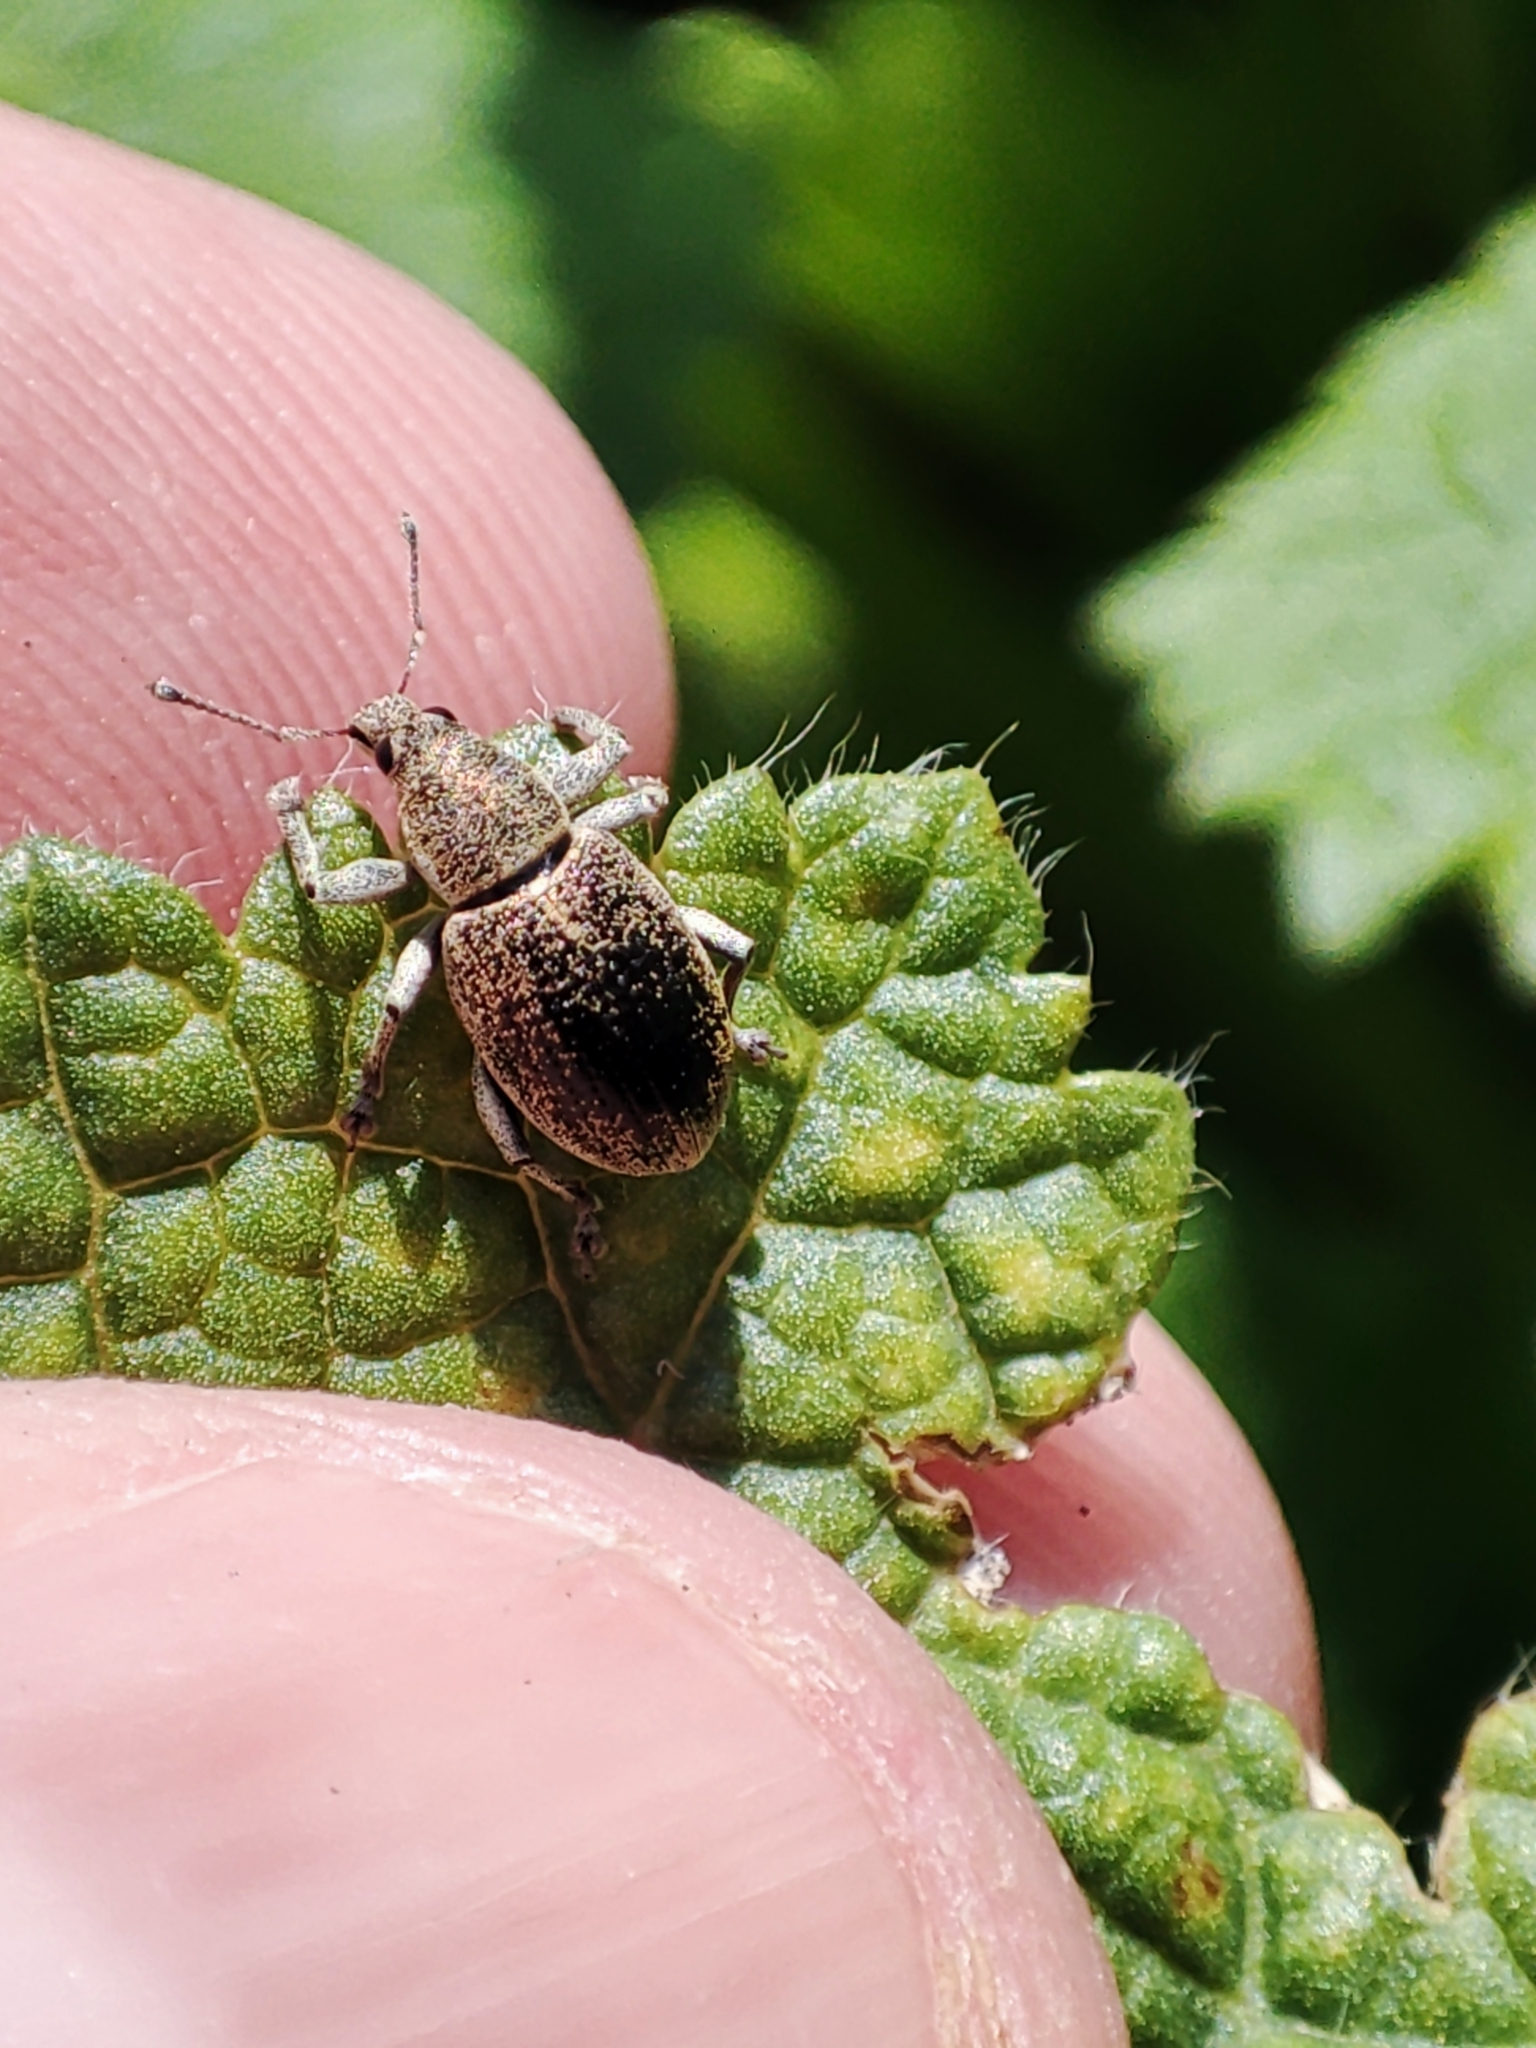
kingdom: Animalia
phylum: Arthropoda
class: Insecta
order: Coleoptera
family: Curculionidae
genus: Sciaphobus
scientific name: Sciaphobus squalidus
